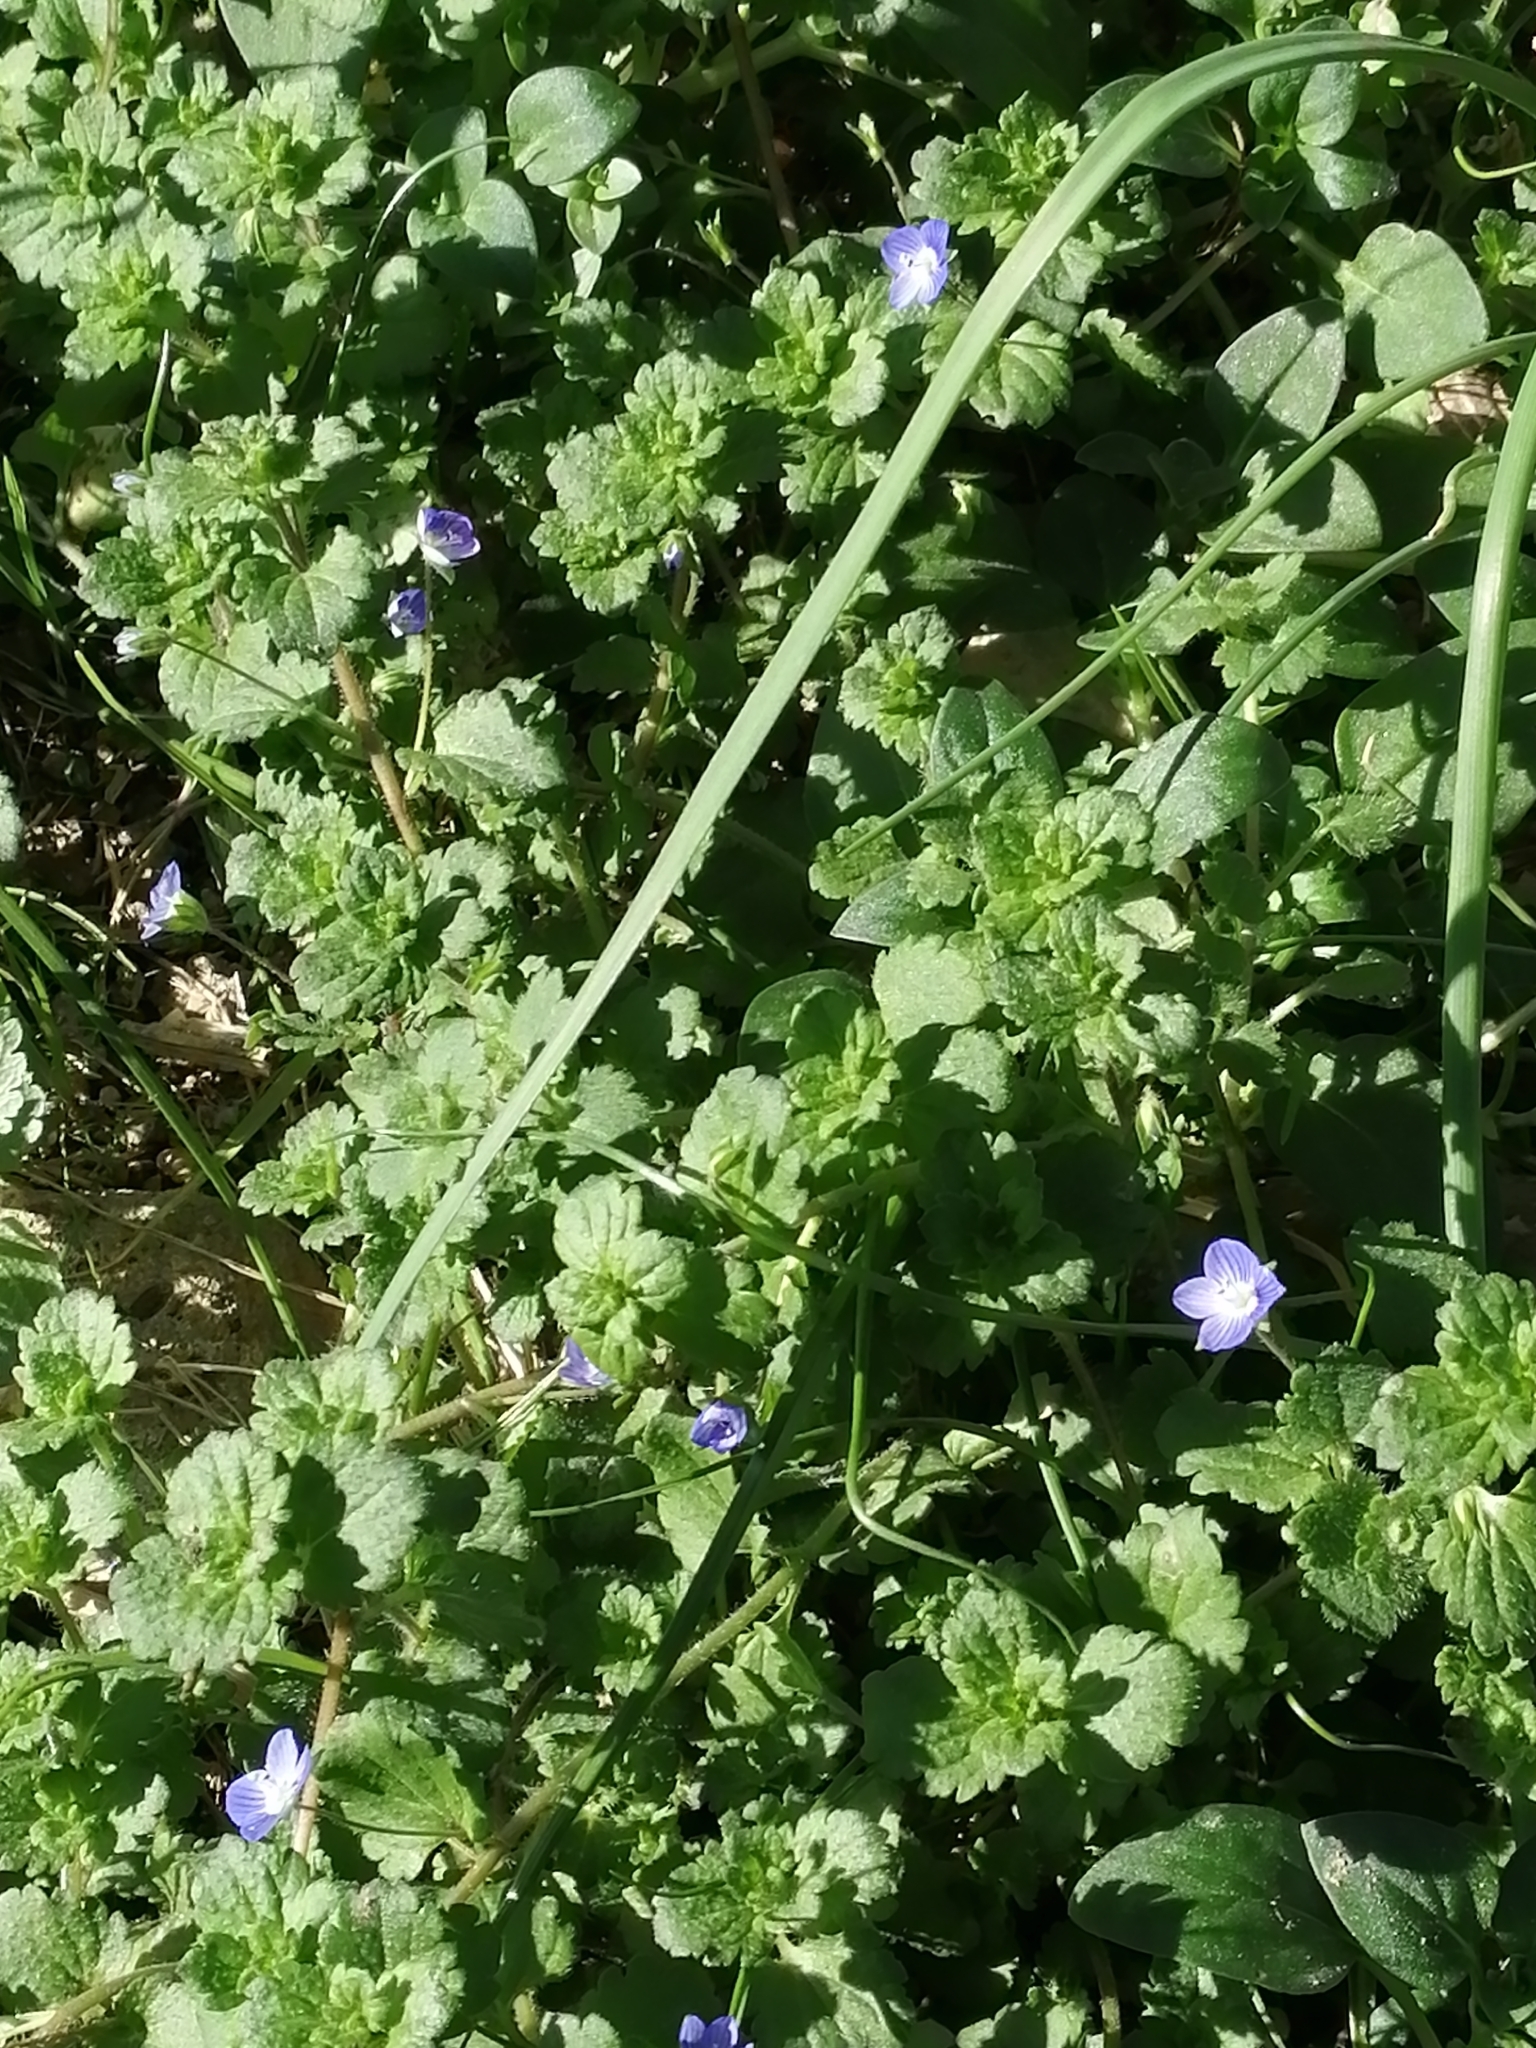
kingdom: Plantae
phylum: Tracheophyta
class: Magnoliopsida
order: Lamiales
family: Plantaginaceae
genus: Veronica
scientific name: Veronica persica
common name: Common field-speedwell
